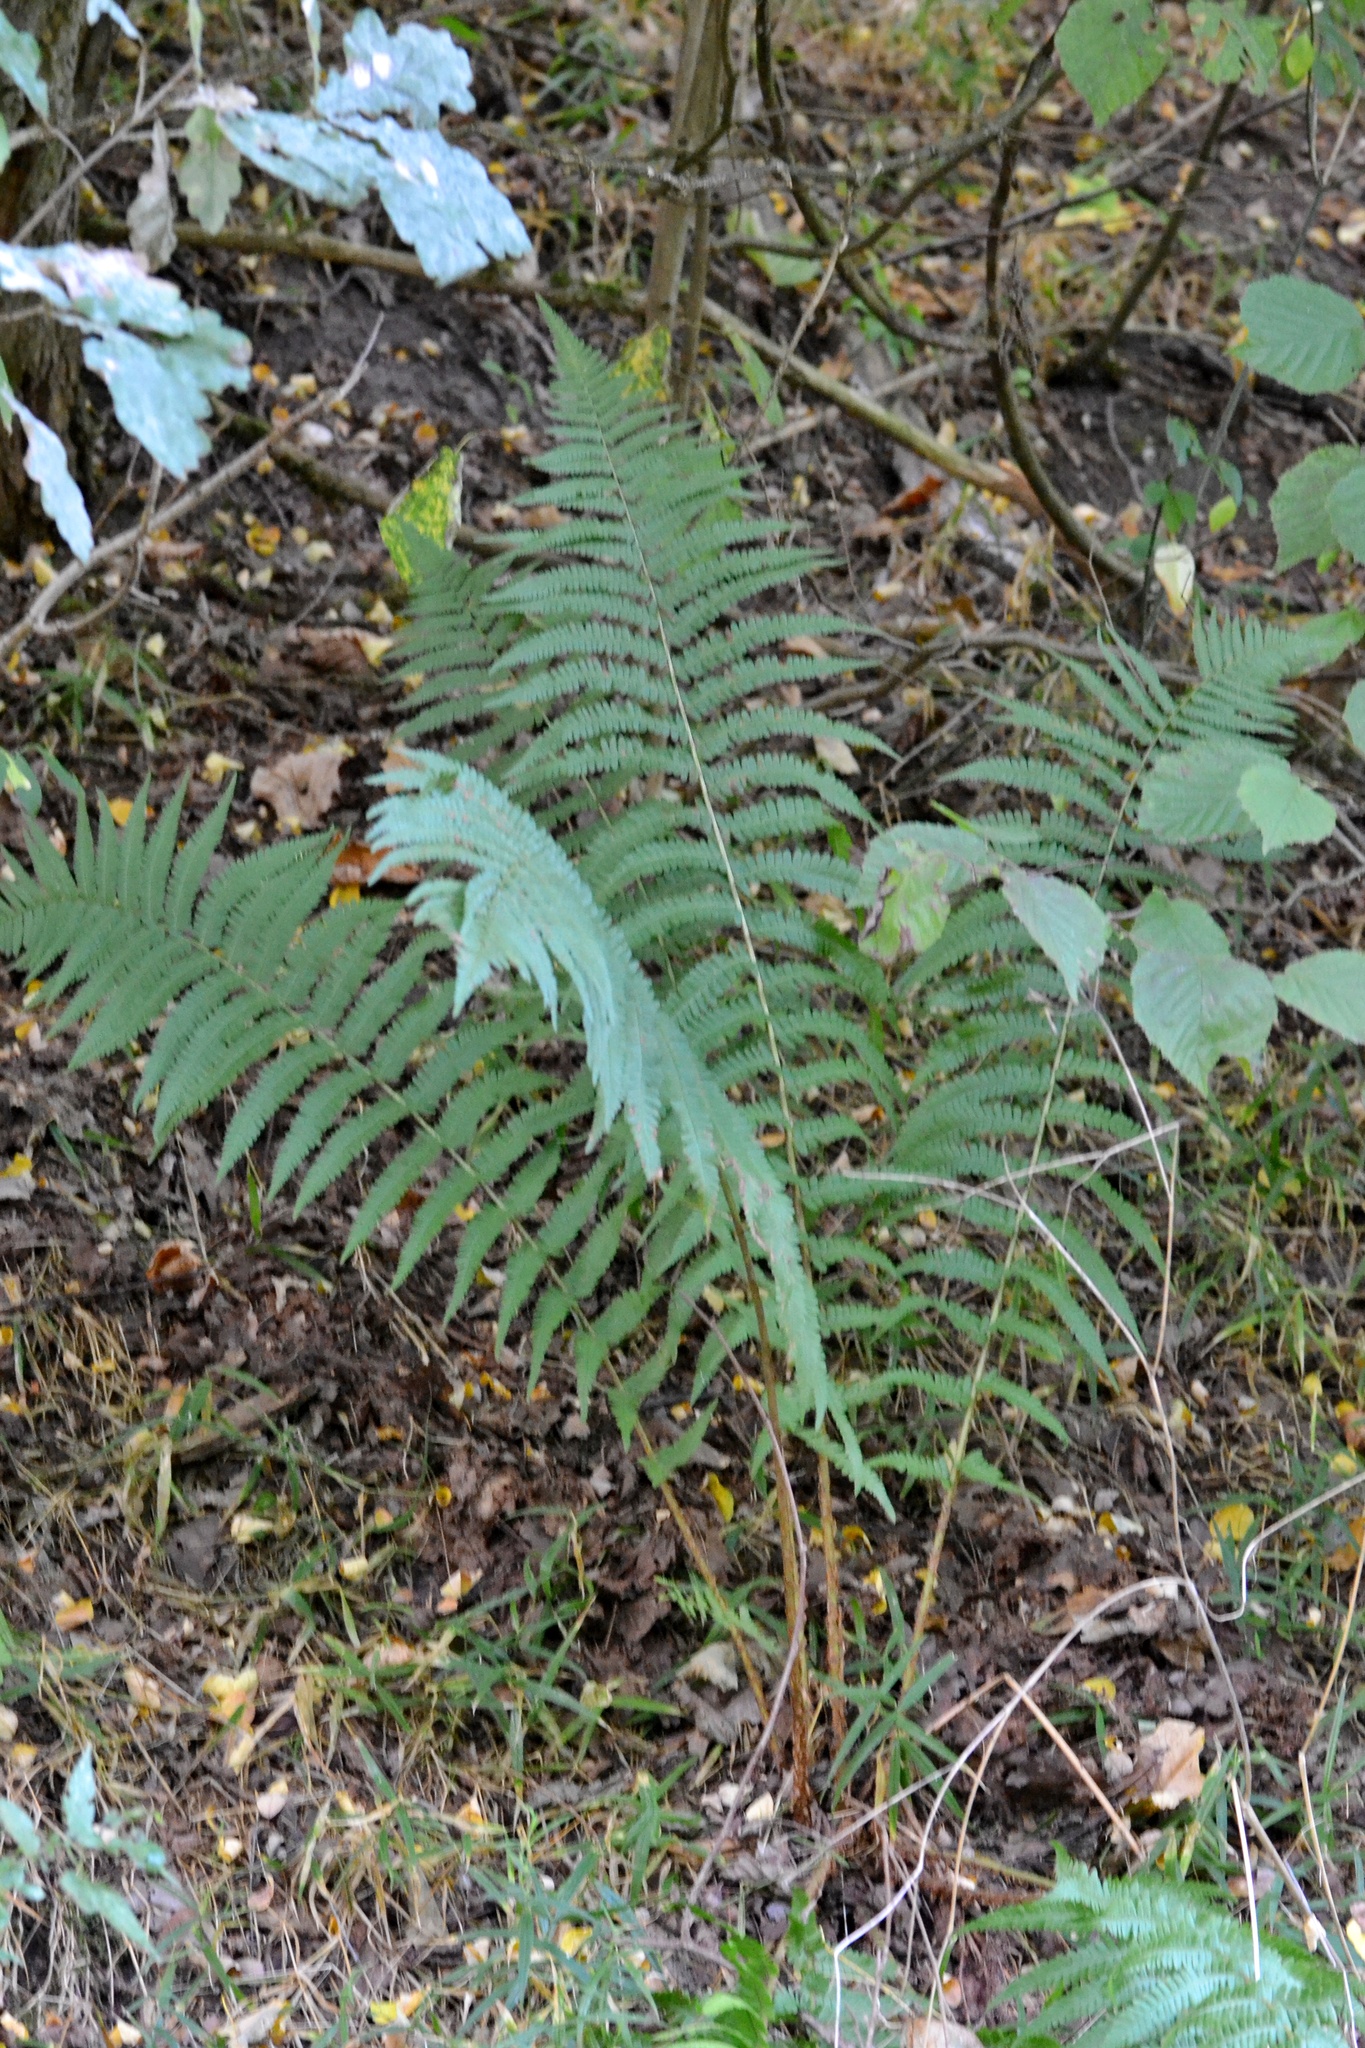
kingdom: Plantae
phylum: Tracheophyta
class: Polypodiopsida
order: Polypodiales
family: Dryopteridaceae
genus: Dryopteris
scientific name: Dryopteris filix-mas
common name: Male fern
